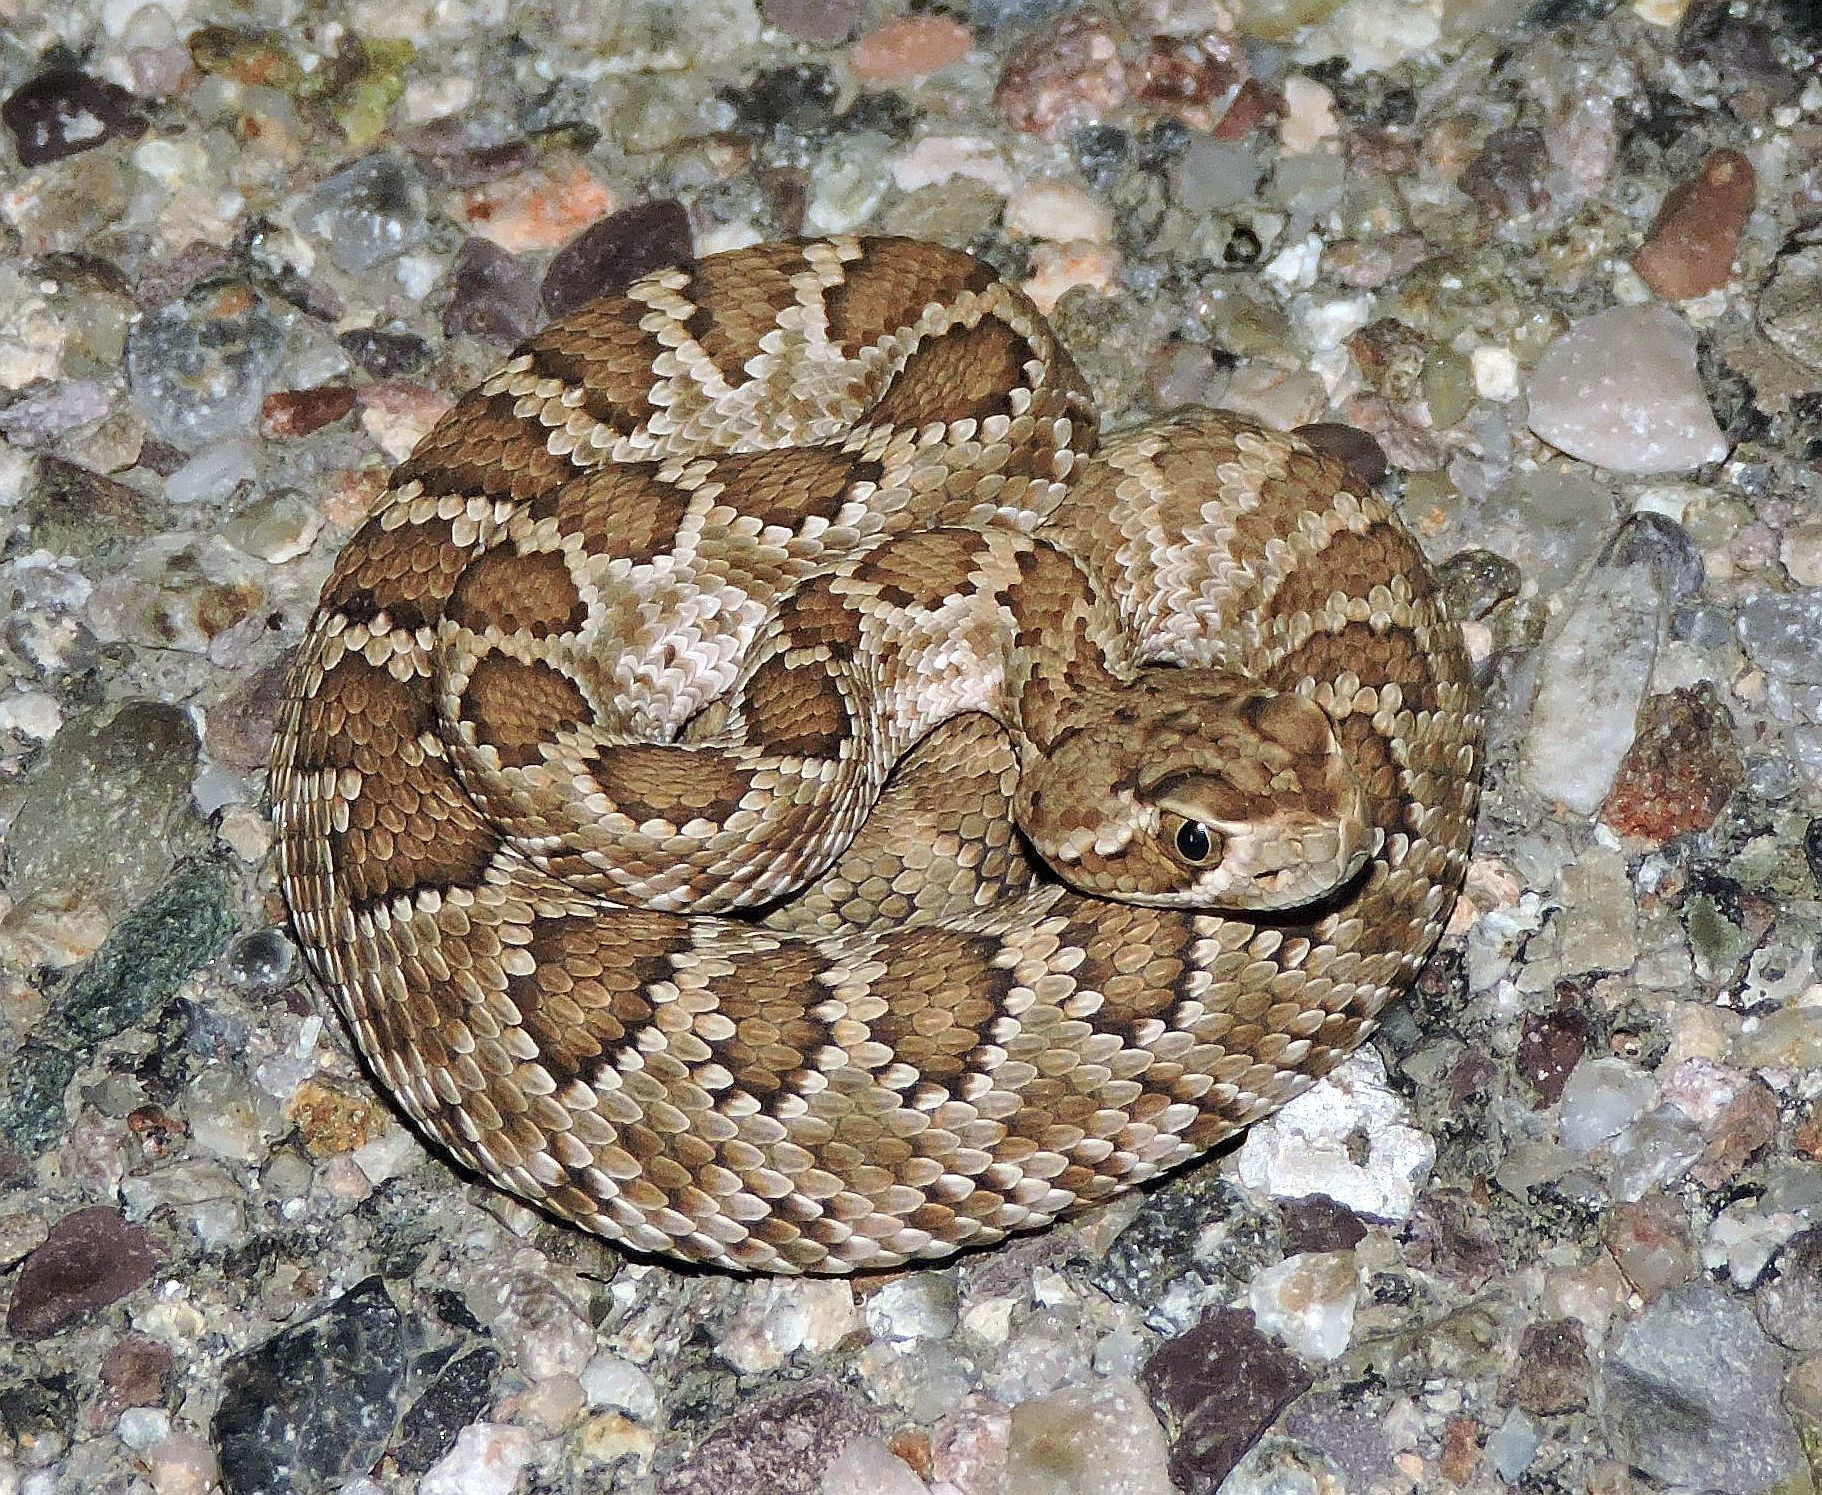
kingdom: Animalia
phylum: Chordata
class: Squamata
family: Viperidae
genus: Crotalus
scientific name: Crotalus scutulatus
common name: Scutulatus
